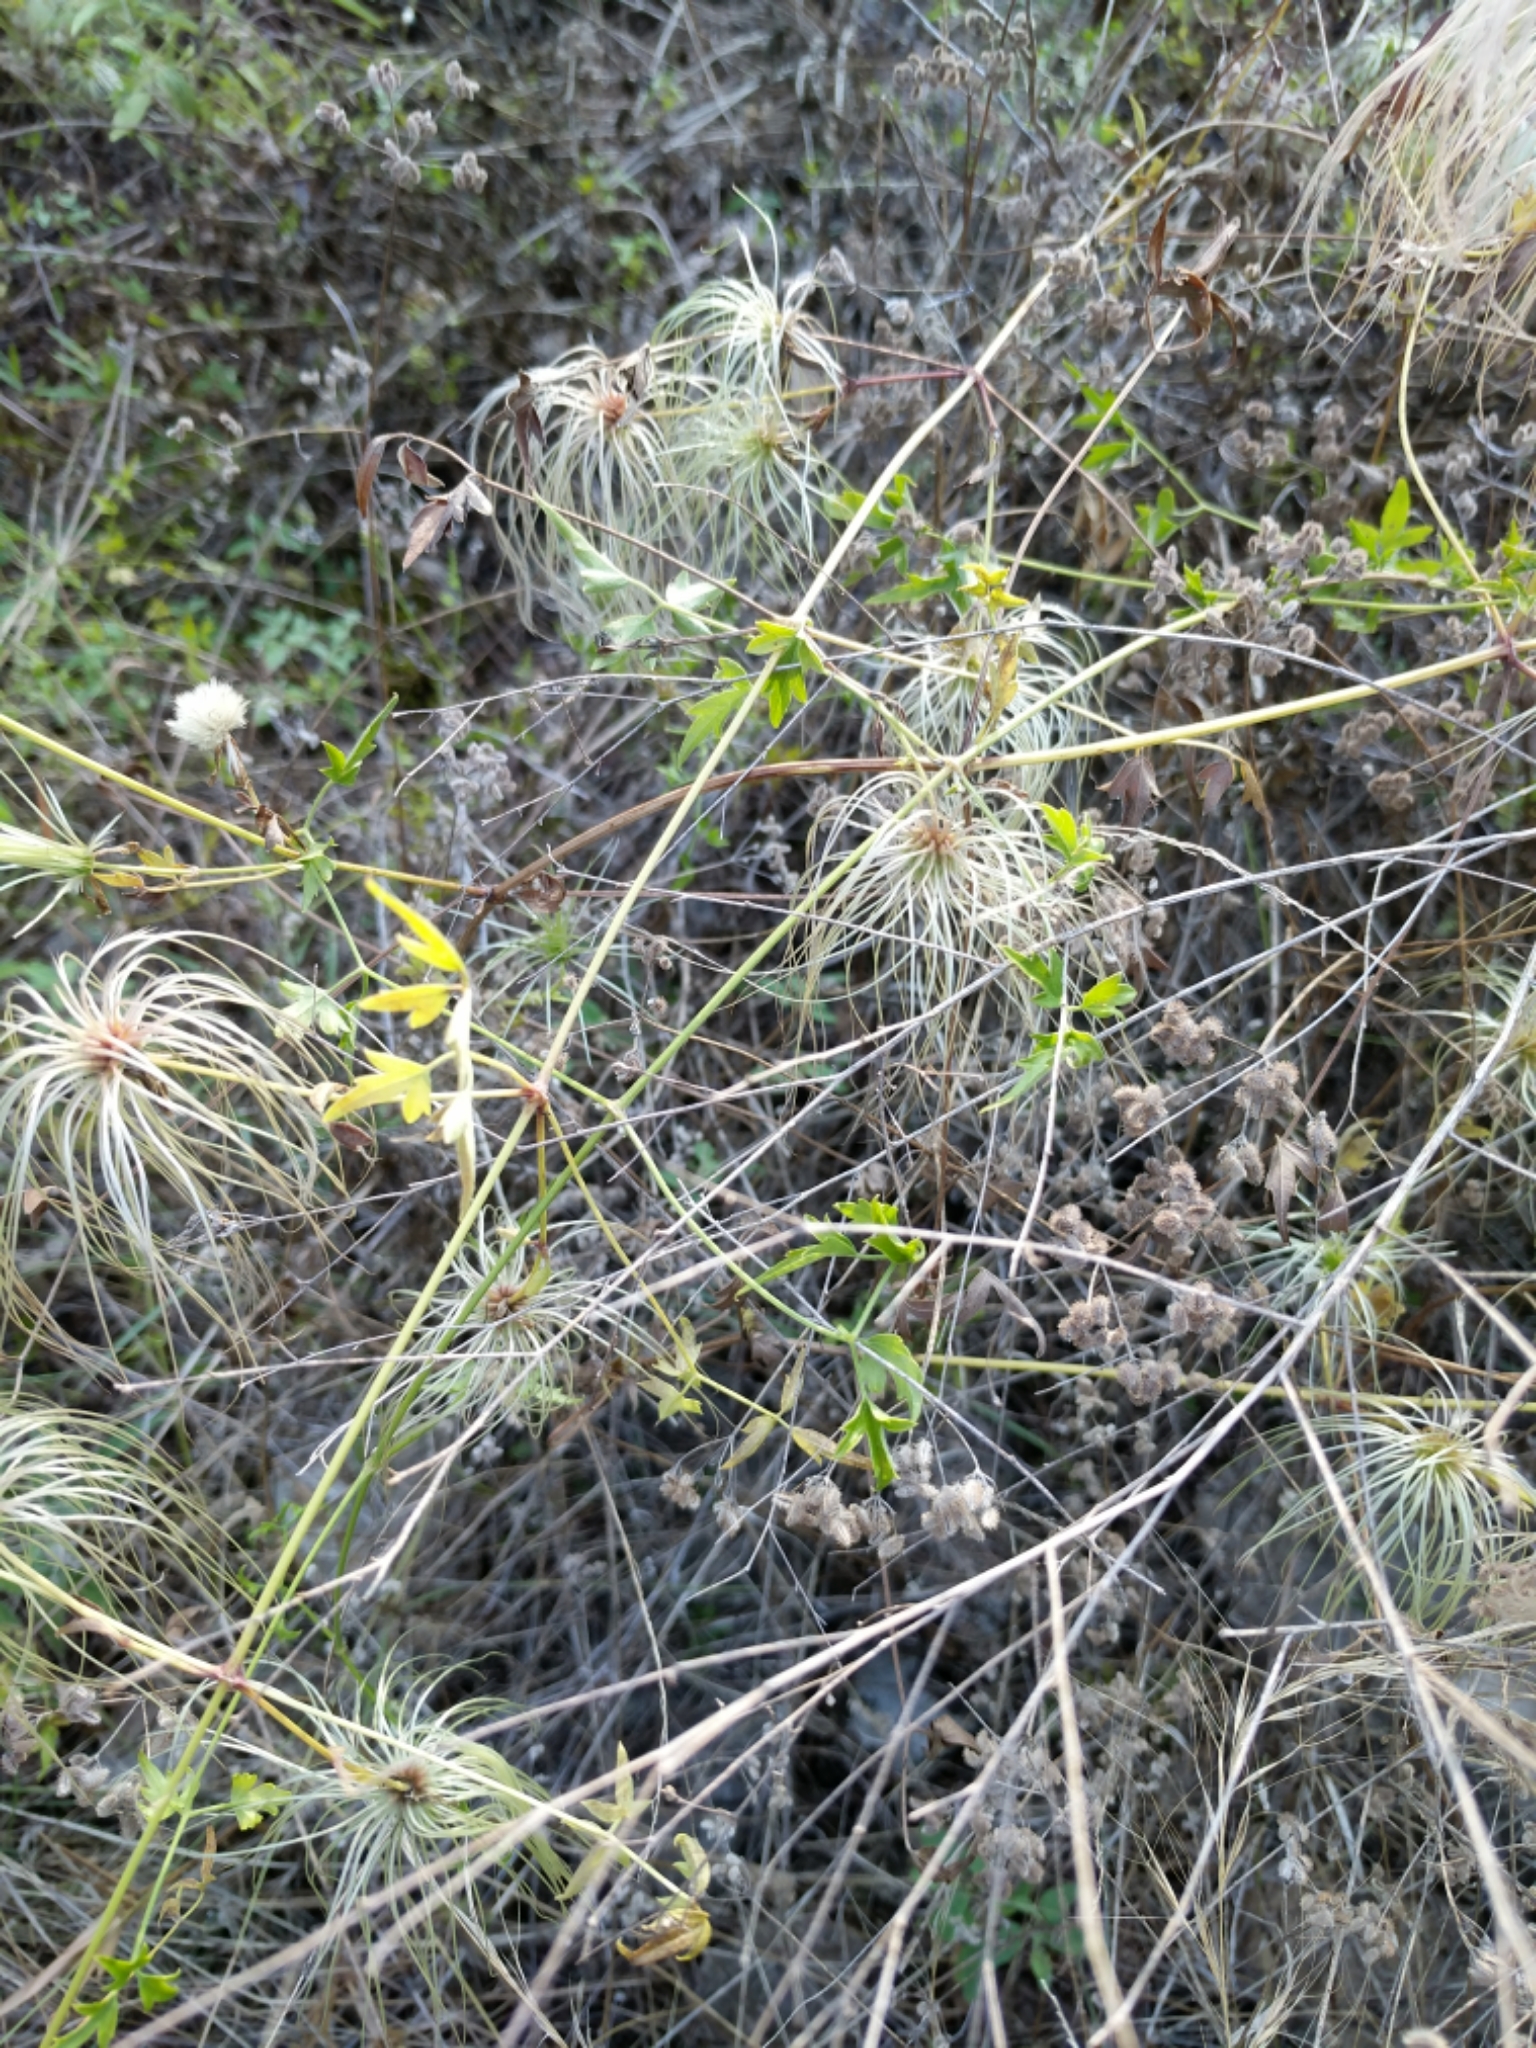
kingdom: Plantae
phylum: Tracheophyta
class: Magnoliopsida
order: Ranunculales
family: Ranunculaceae
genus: Clematis
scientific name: Clematis drummondii
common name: Texas virgin's bower
